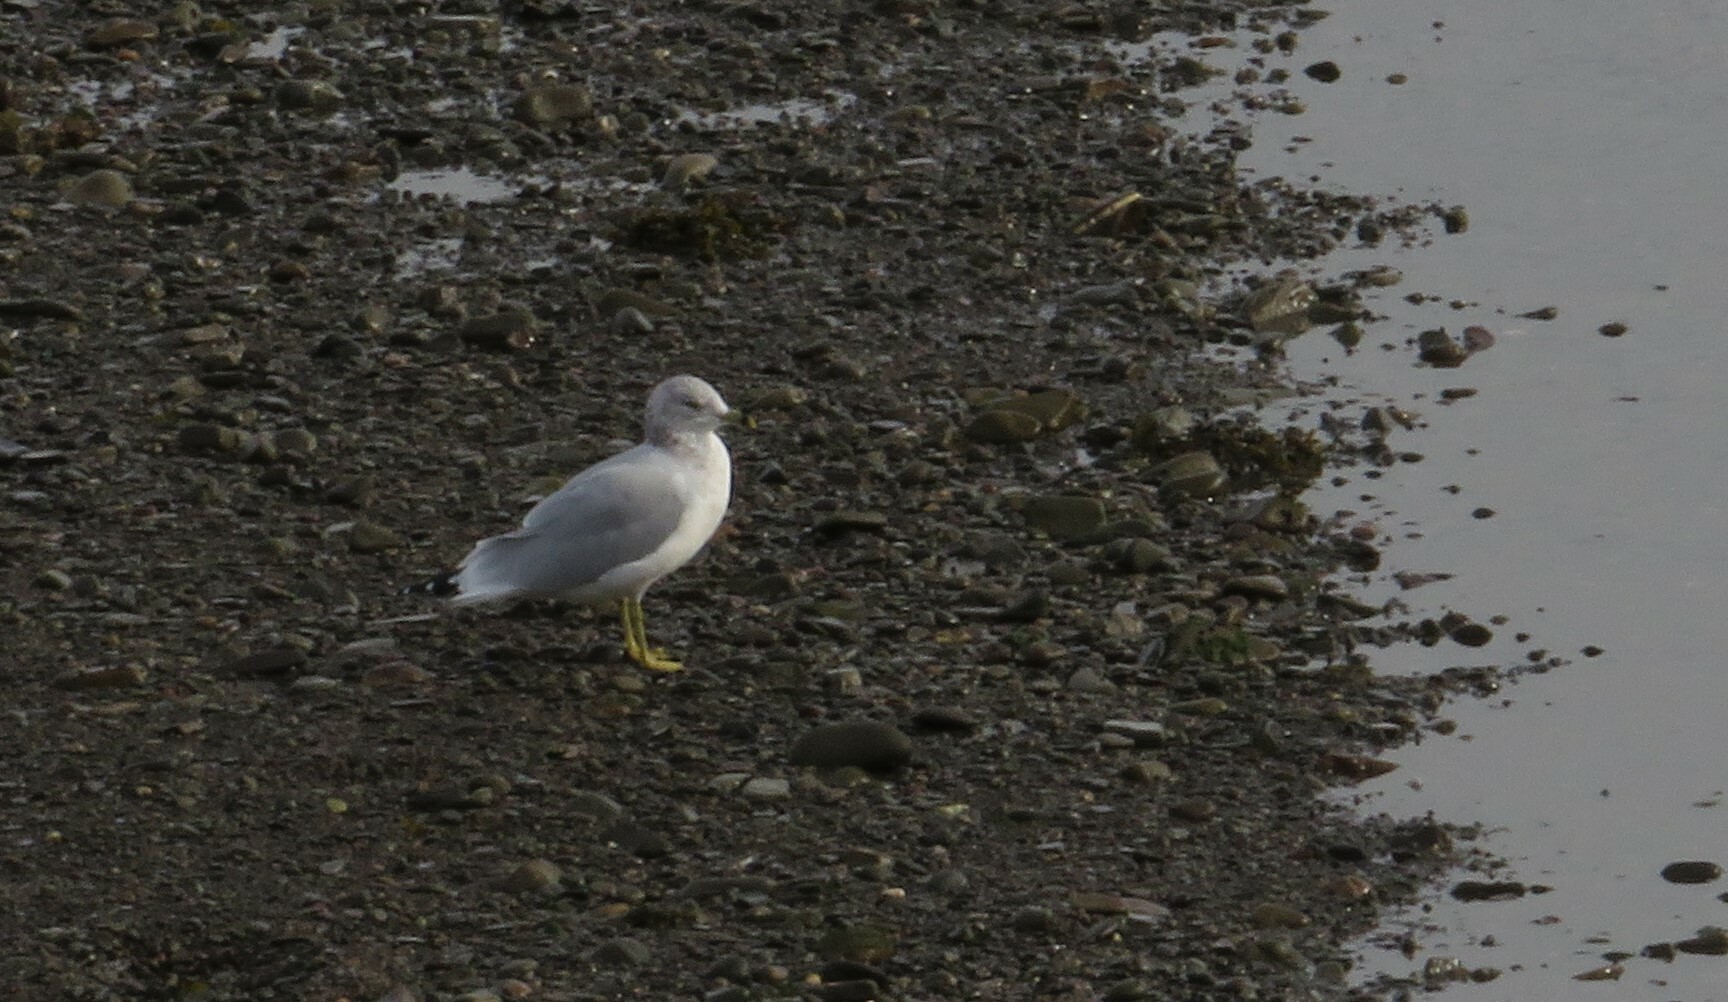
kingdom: Animalia
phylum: Chordata
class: Aves
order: Charadriiformes
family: Laridae
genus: Larus
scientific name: Larus delawarensis
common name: Ring-billed gull
